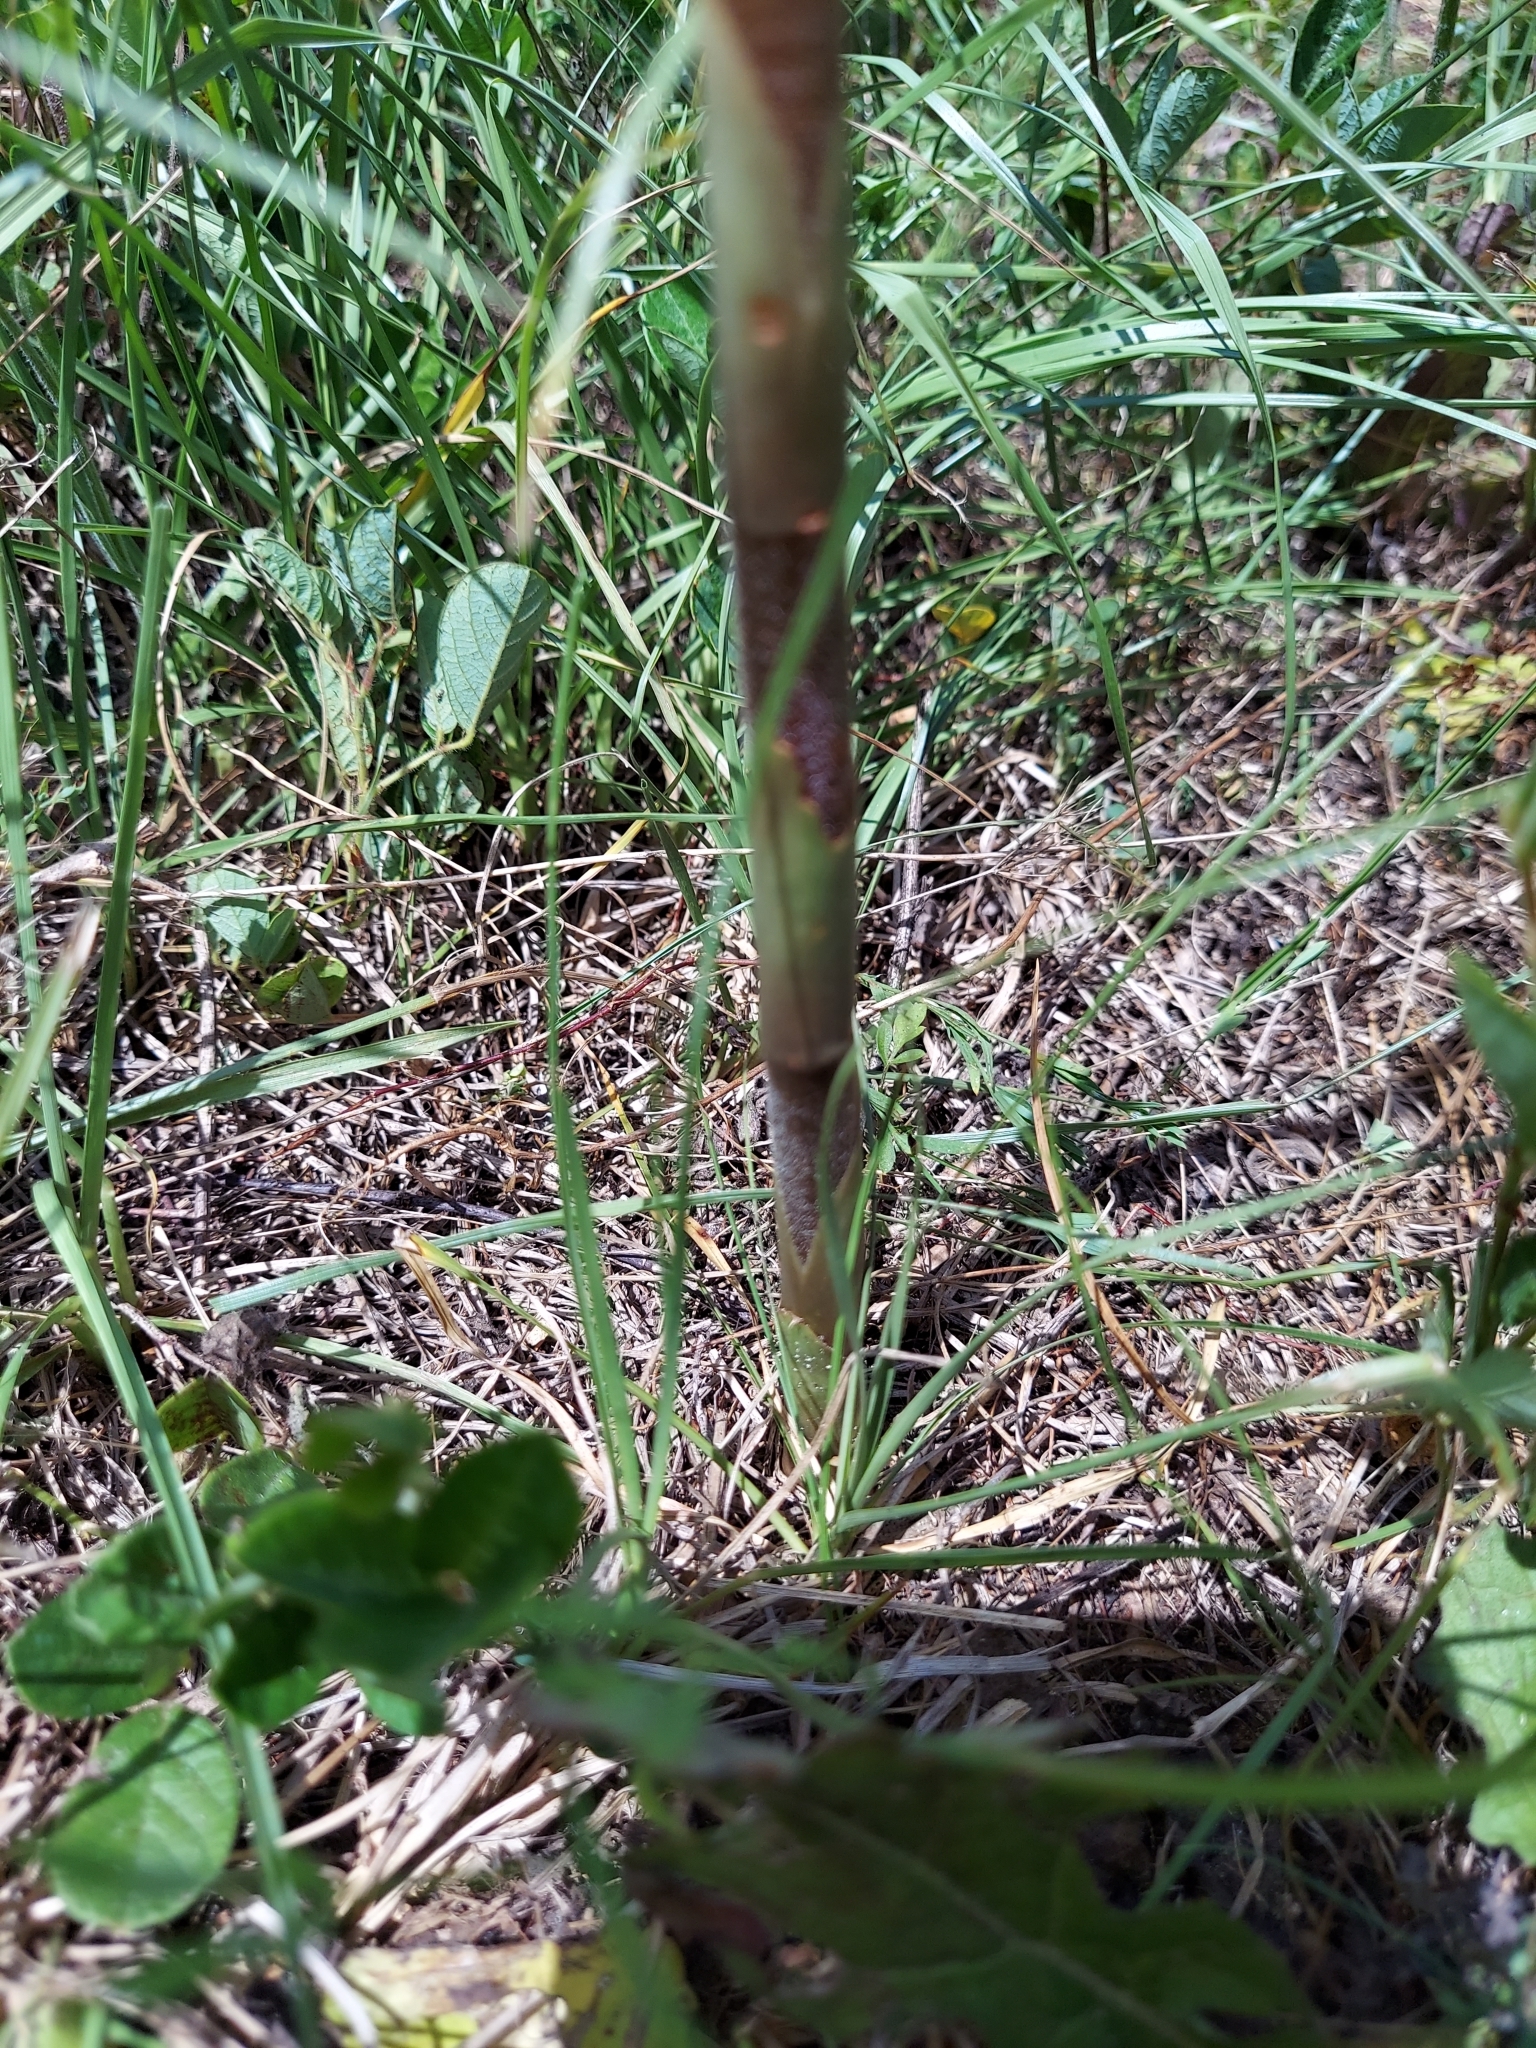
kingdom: Plantae
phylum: Tracheophyta
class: Liliopsida
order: Asparagales
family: Orchidaceae
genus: Sacoila
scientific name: Sacoila lanceolata
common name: Leafless beaked ladiestresses
